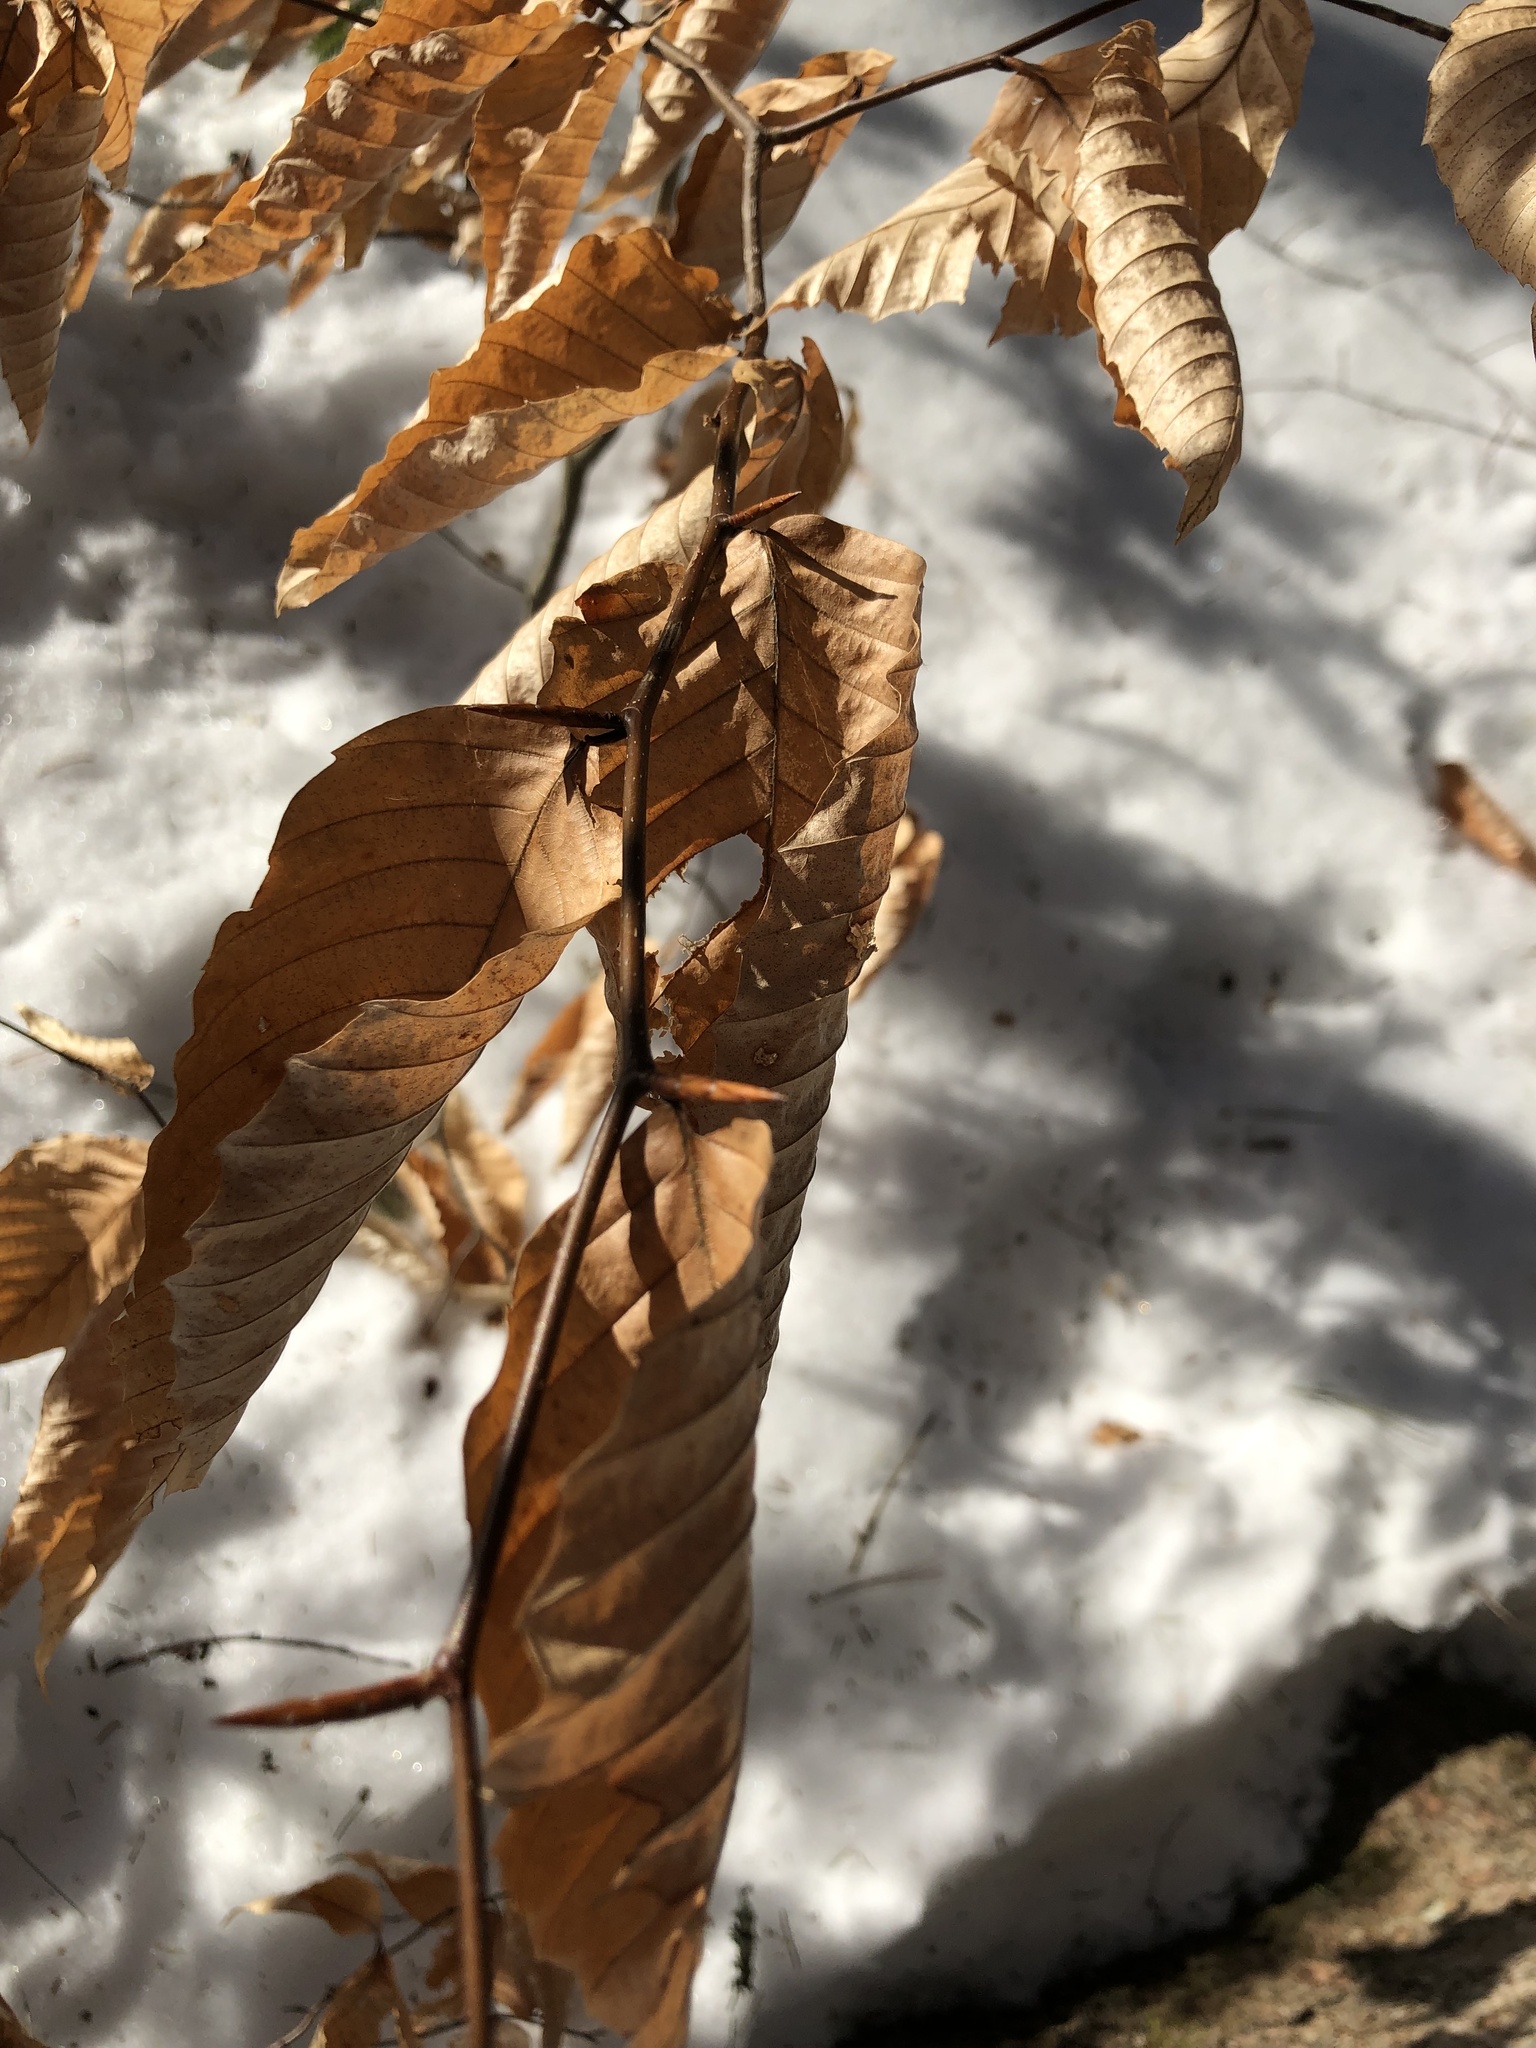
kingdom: Plantae
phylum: Tracheophyta
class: Magnoliopsida
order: Fagales
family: Fagaceae
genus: Fagus
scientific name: Fagus grandifolia
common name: American beech
